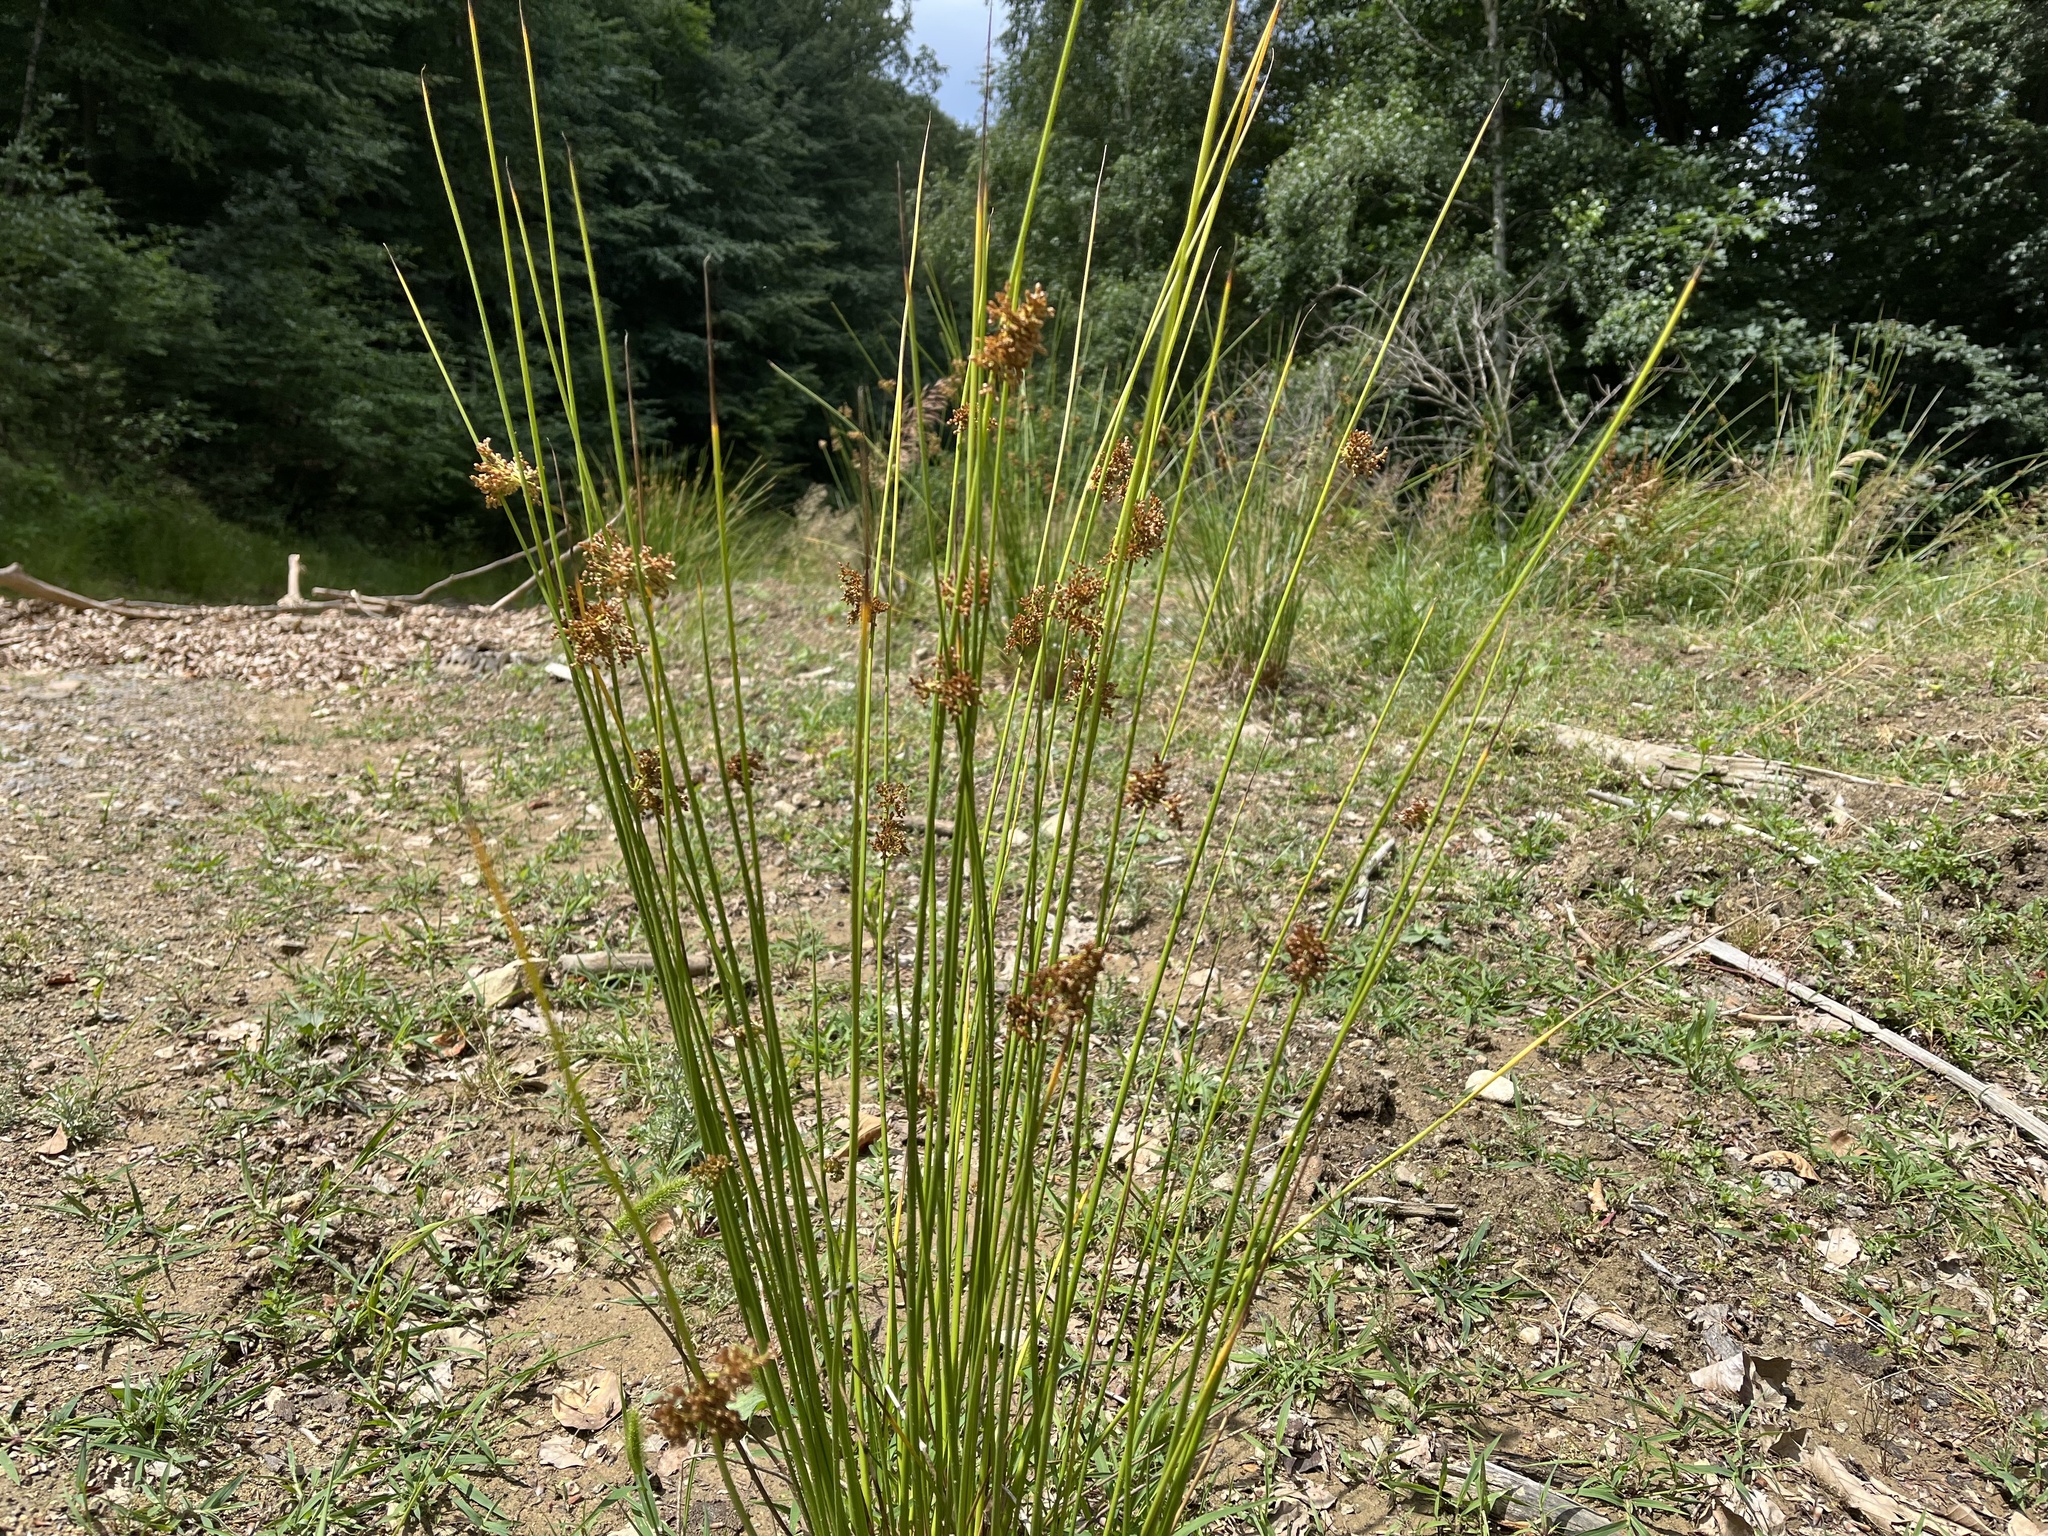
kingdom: Plantae
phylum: Tracheophyta
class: Liliopsida
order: Poales
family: Juncaceae
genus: Juncus
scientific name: Juncus effusus
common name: Soft rush
